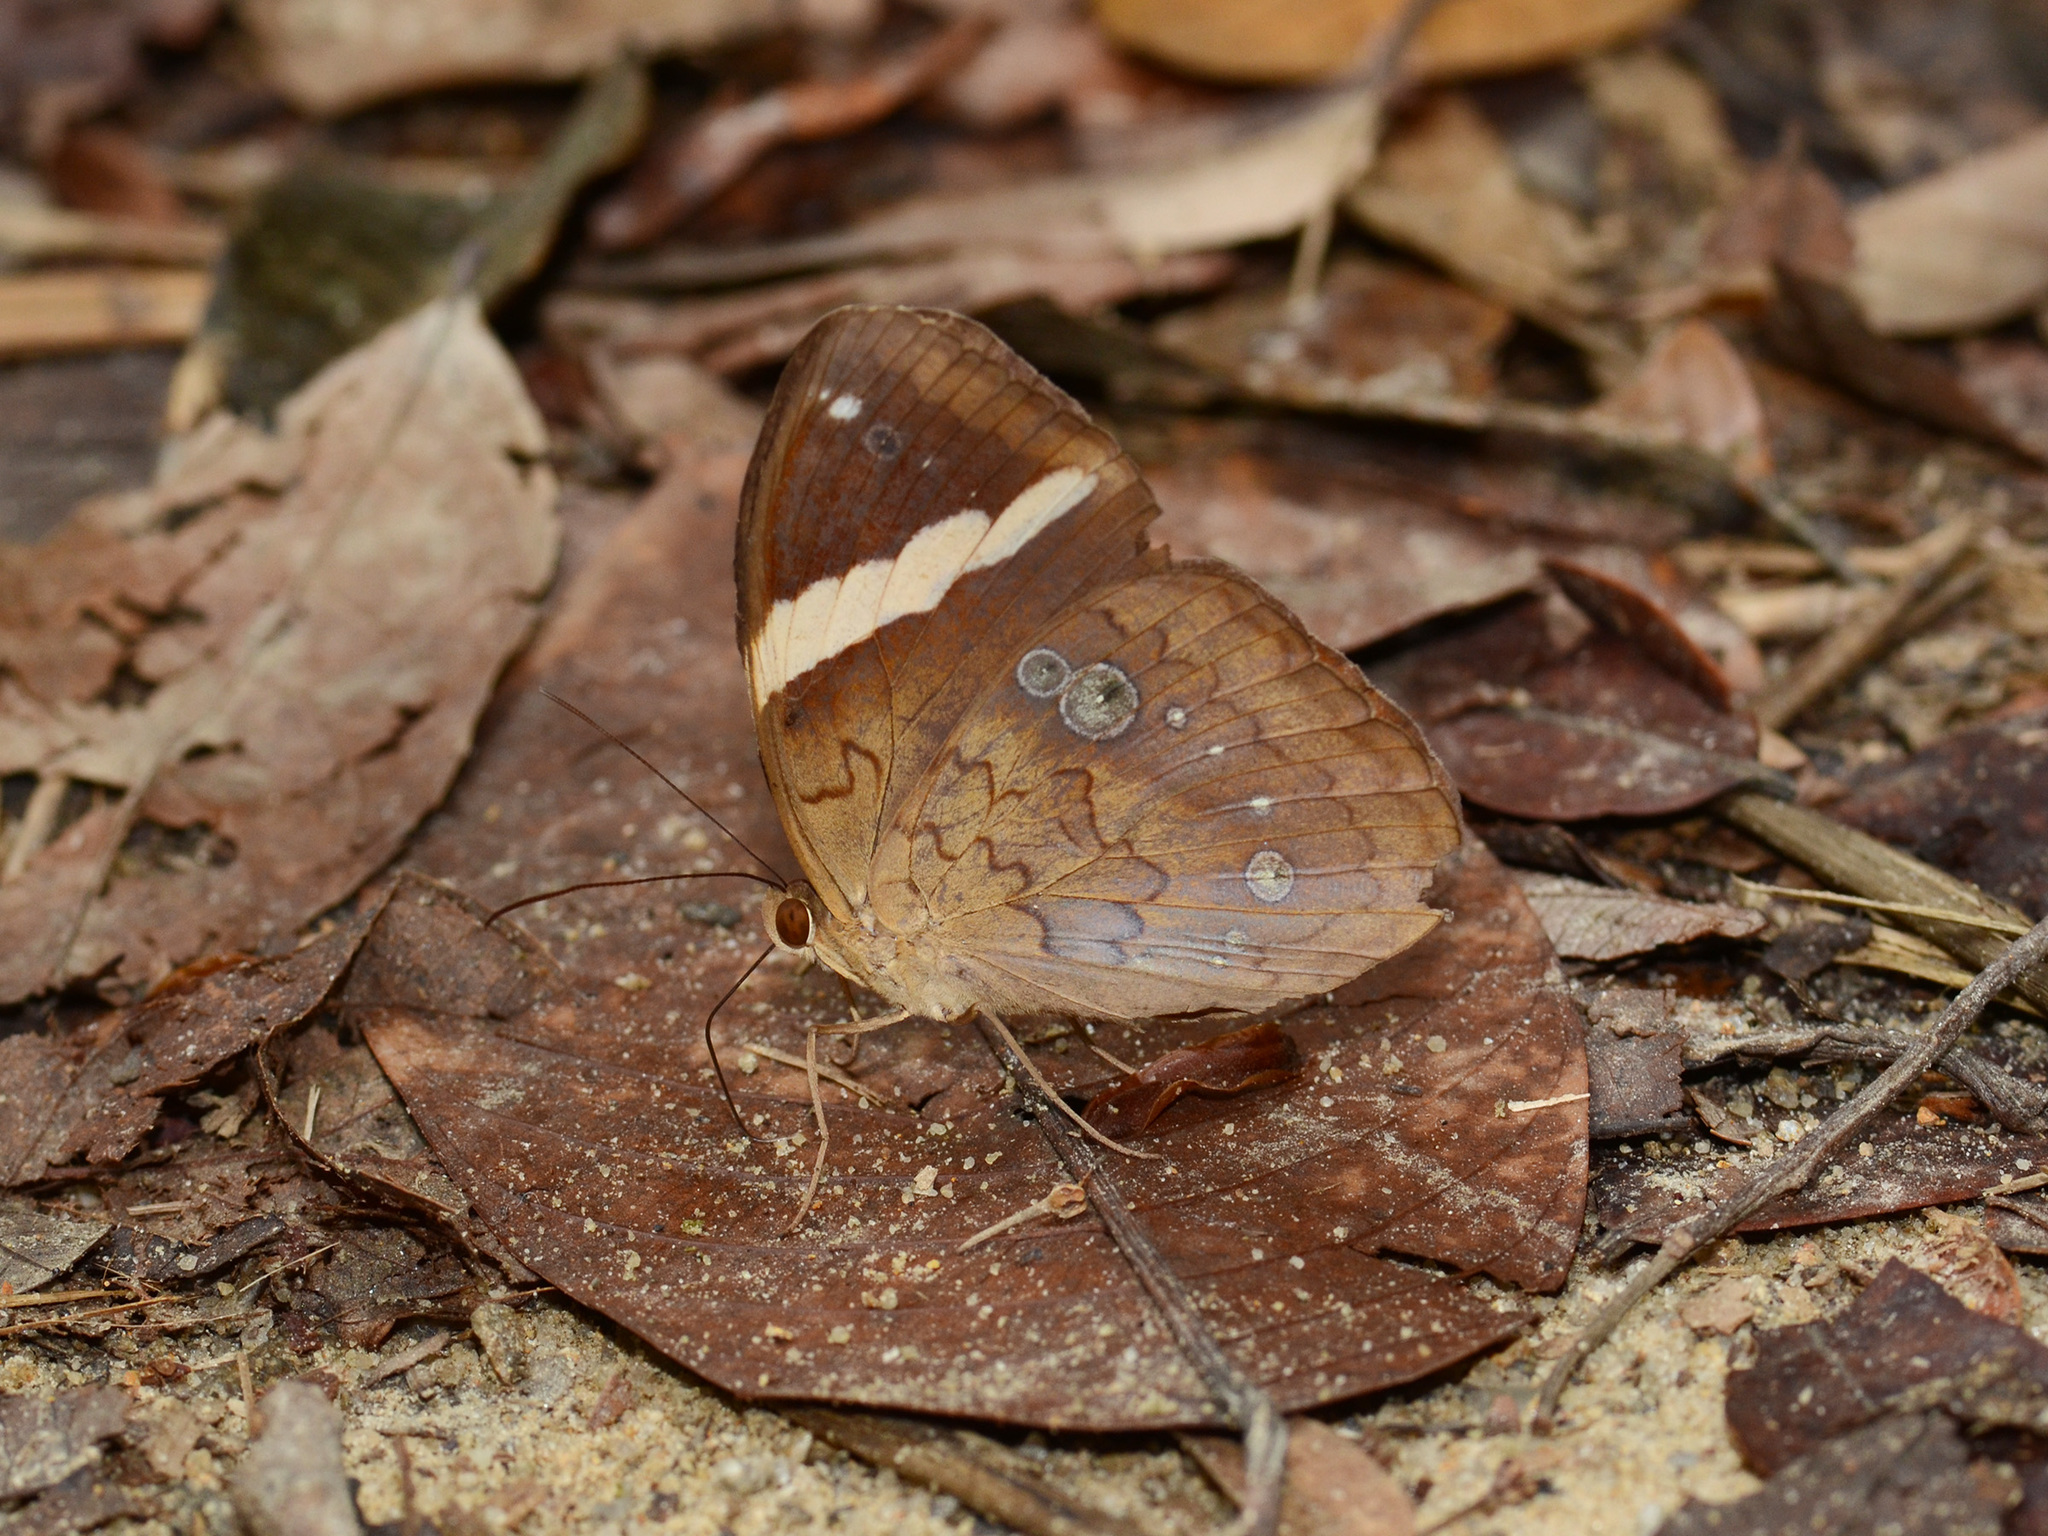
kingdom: Animalia
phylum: Arthropoda
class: Insecta
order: Lepidoptera
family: Nymphalidae
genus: Xanthotaenia
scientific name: Xanthotaenia busiris
